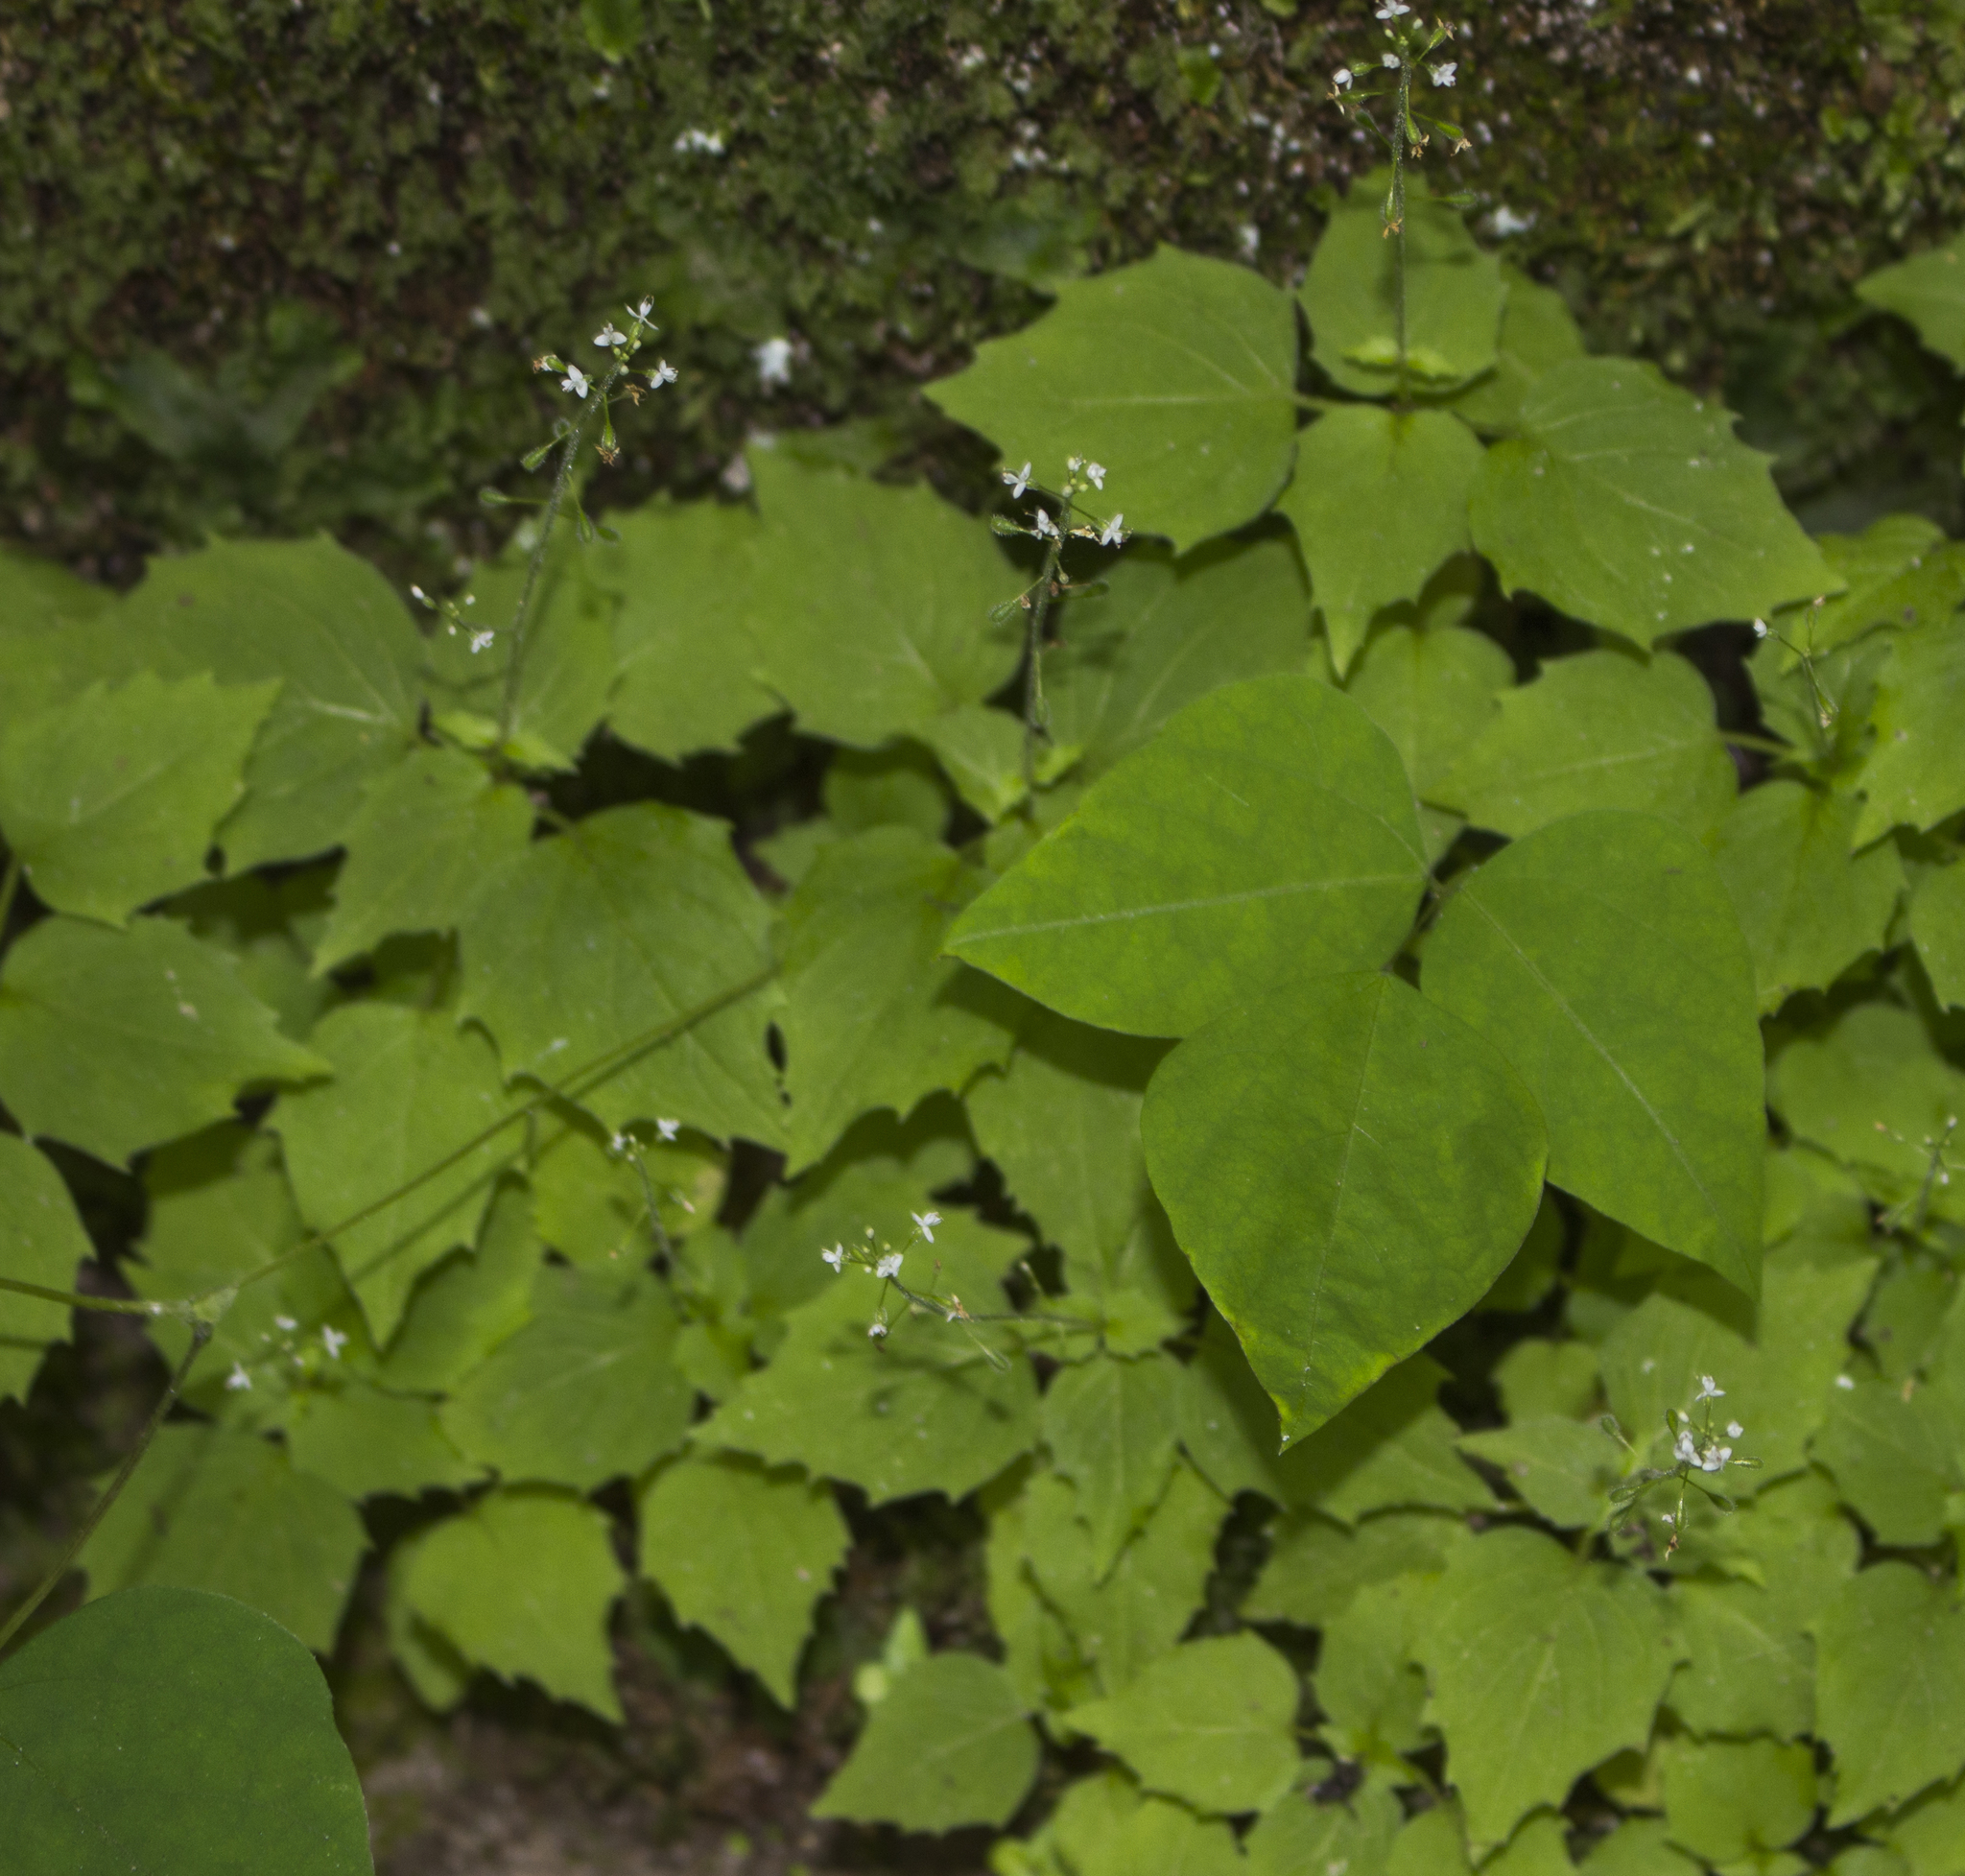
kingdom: Plantae
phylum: Tracheophyta
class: Magnoliopsida
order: Myrtales
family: Onagraceae
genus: Circaea
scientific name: Circaea alpina
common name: Alpine enchanter's-nightshade
